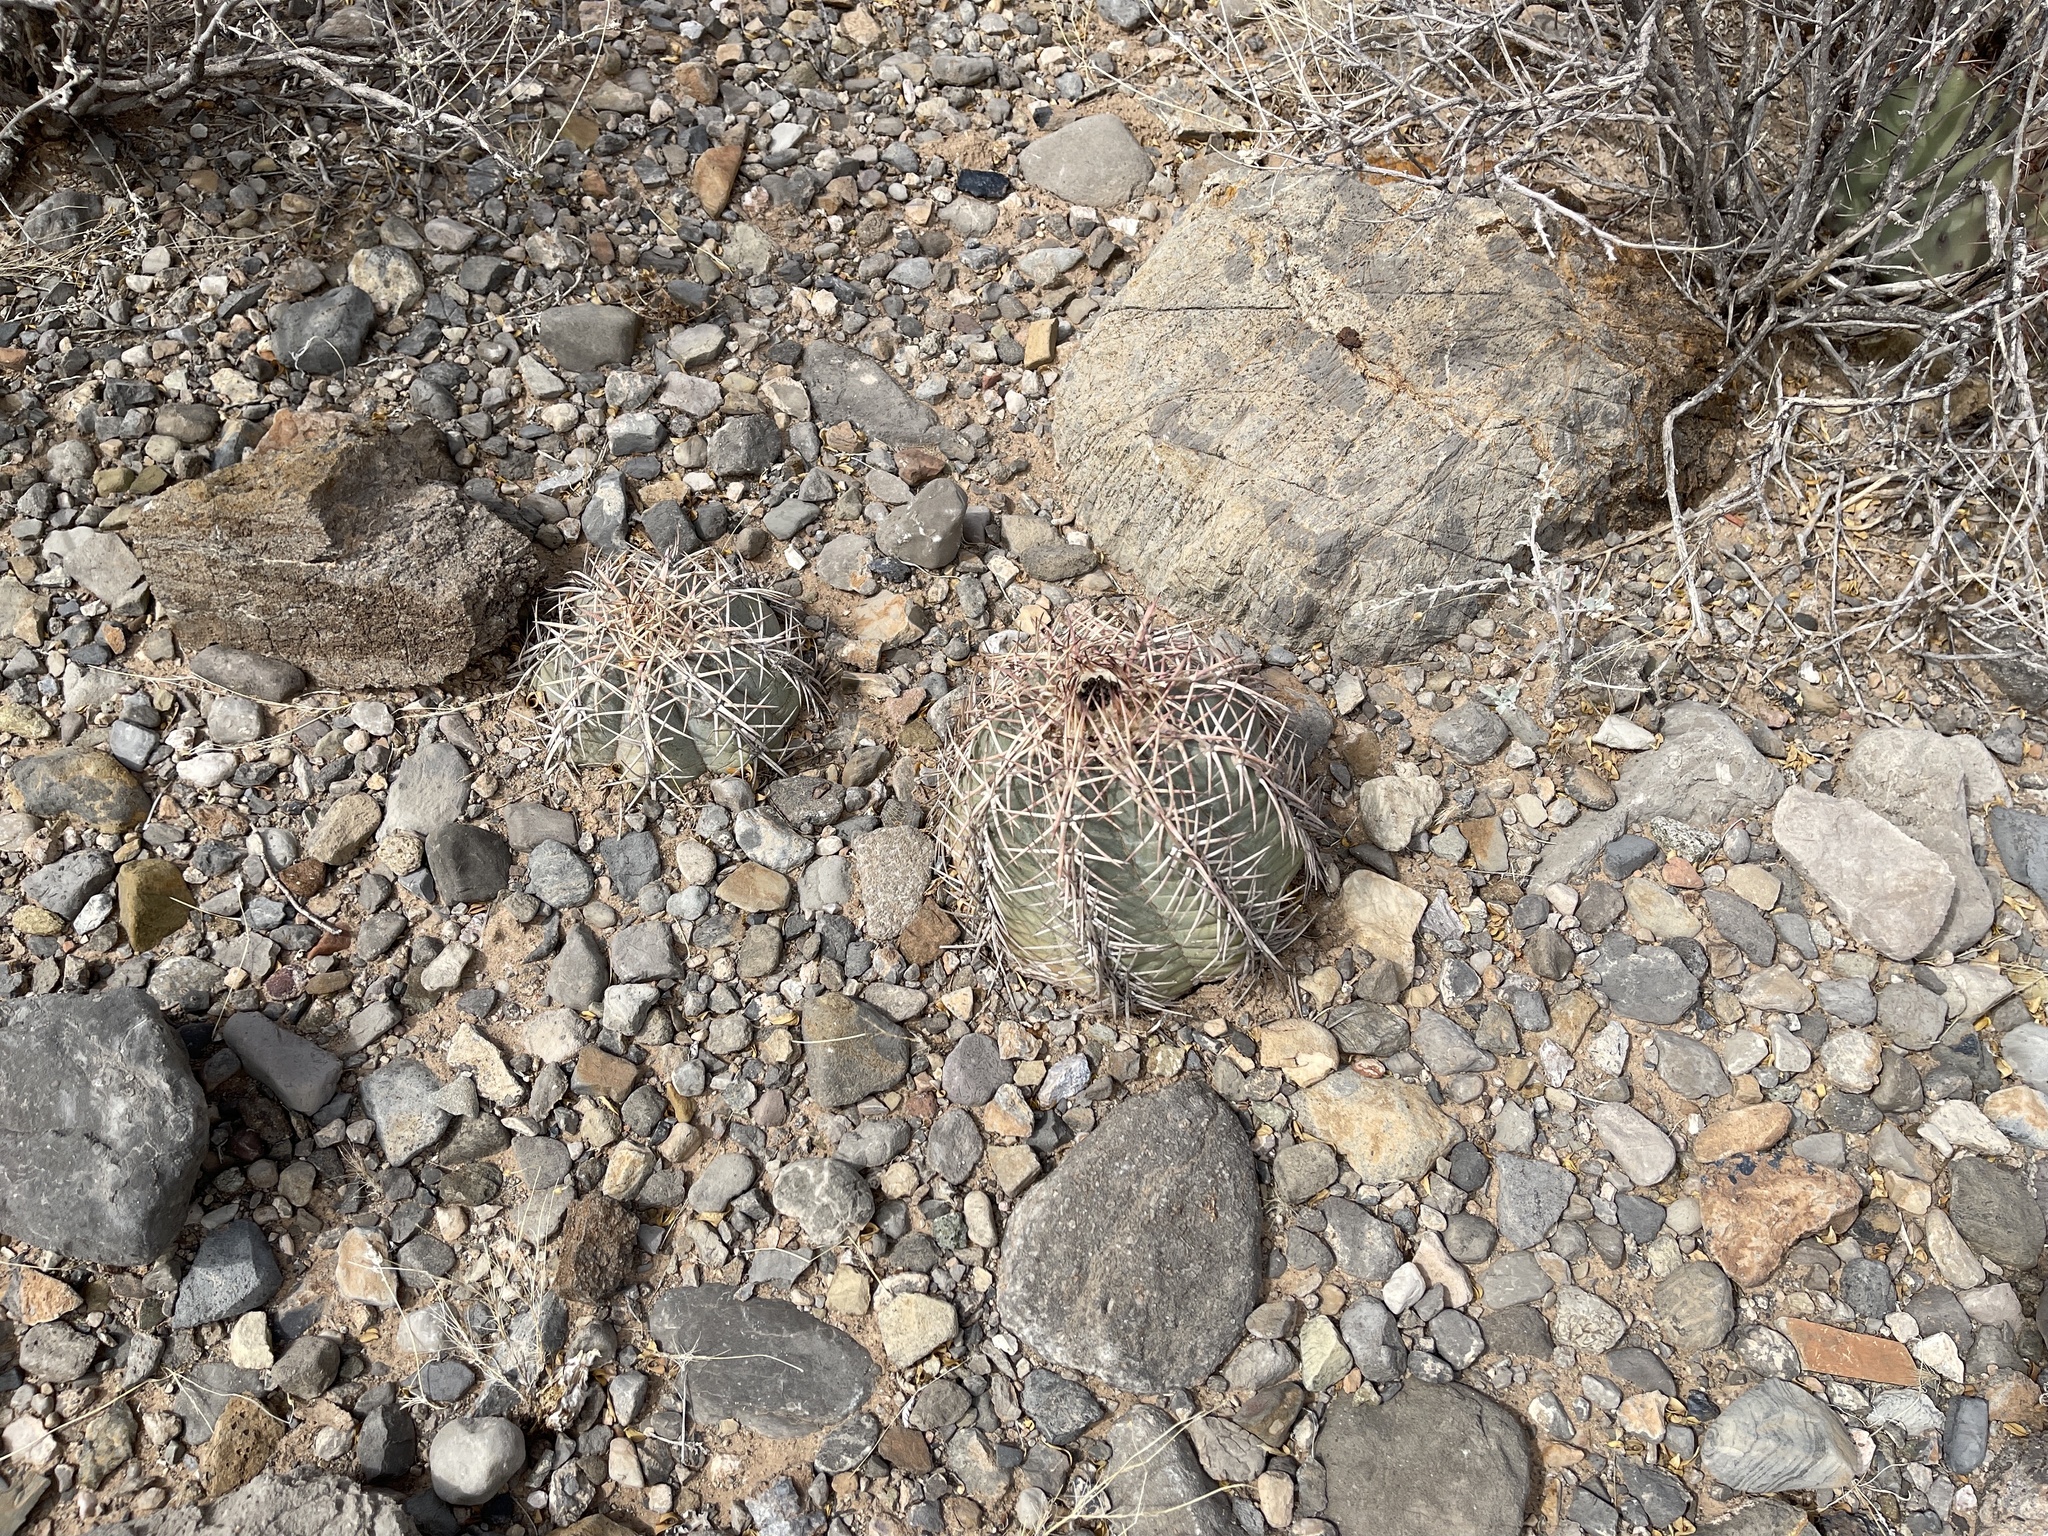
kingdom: Plantae
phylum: Tracheophyta
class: Magnoliopsida
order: Caryophyllales
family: Cactaceae
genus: Echinocactus
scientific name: Echinocactus horizonthalonius
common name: Devilshead
